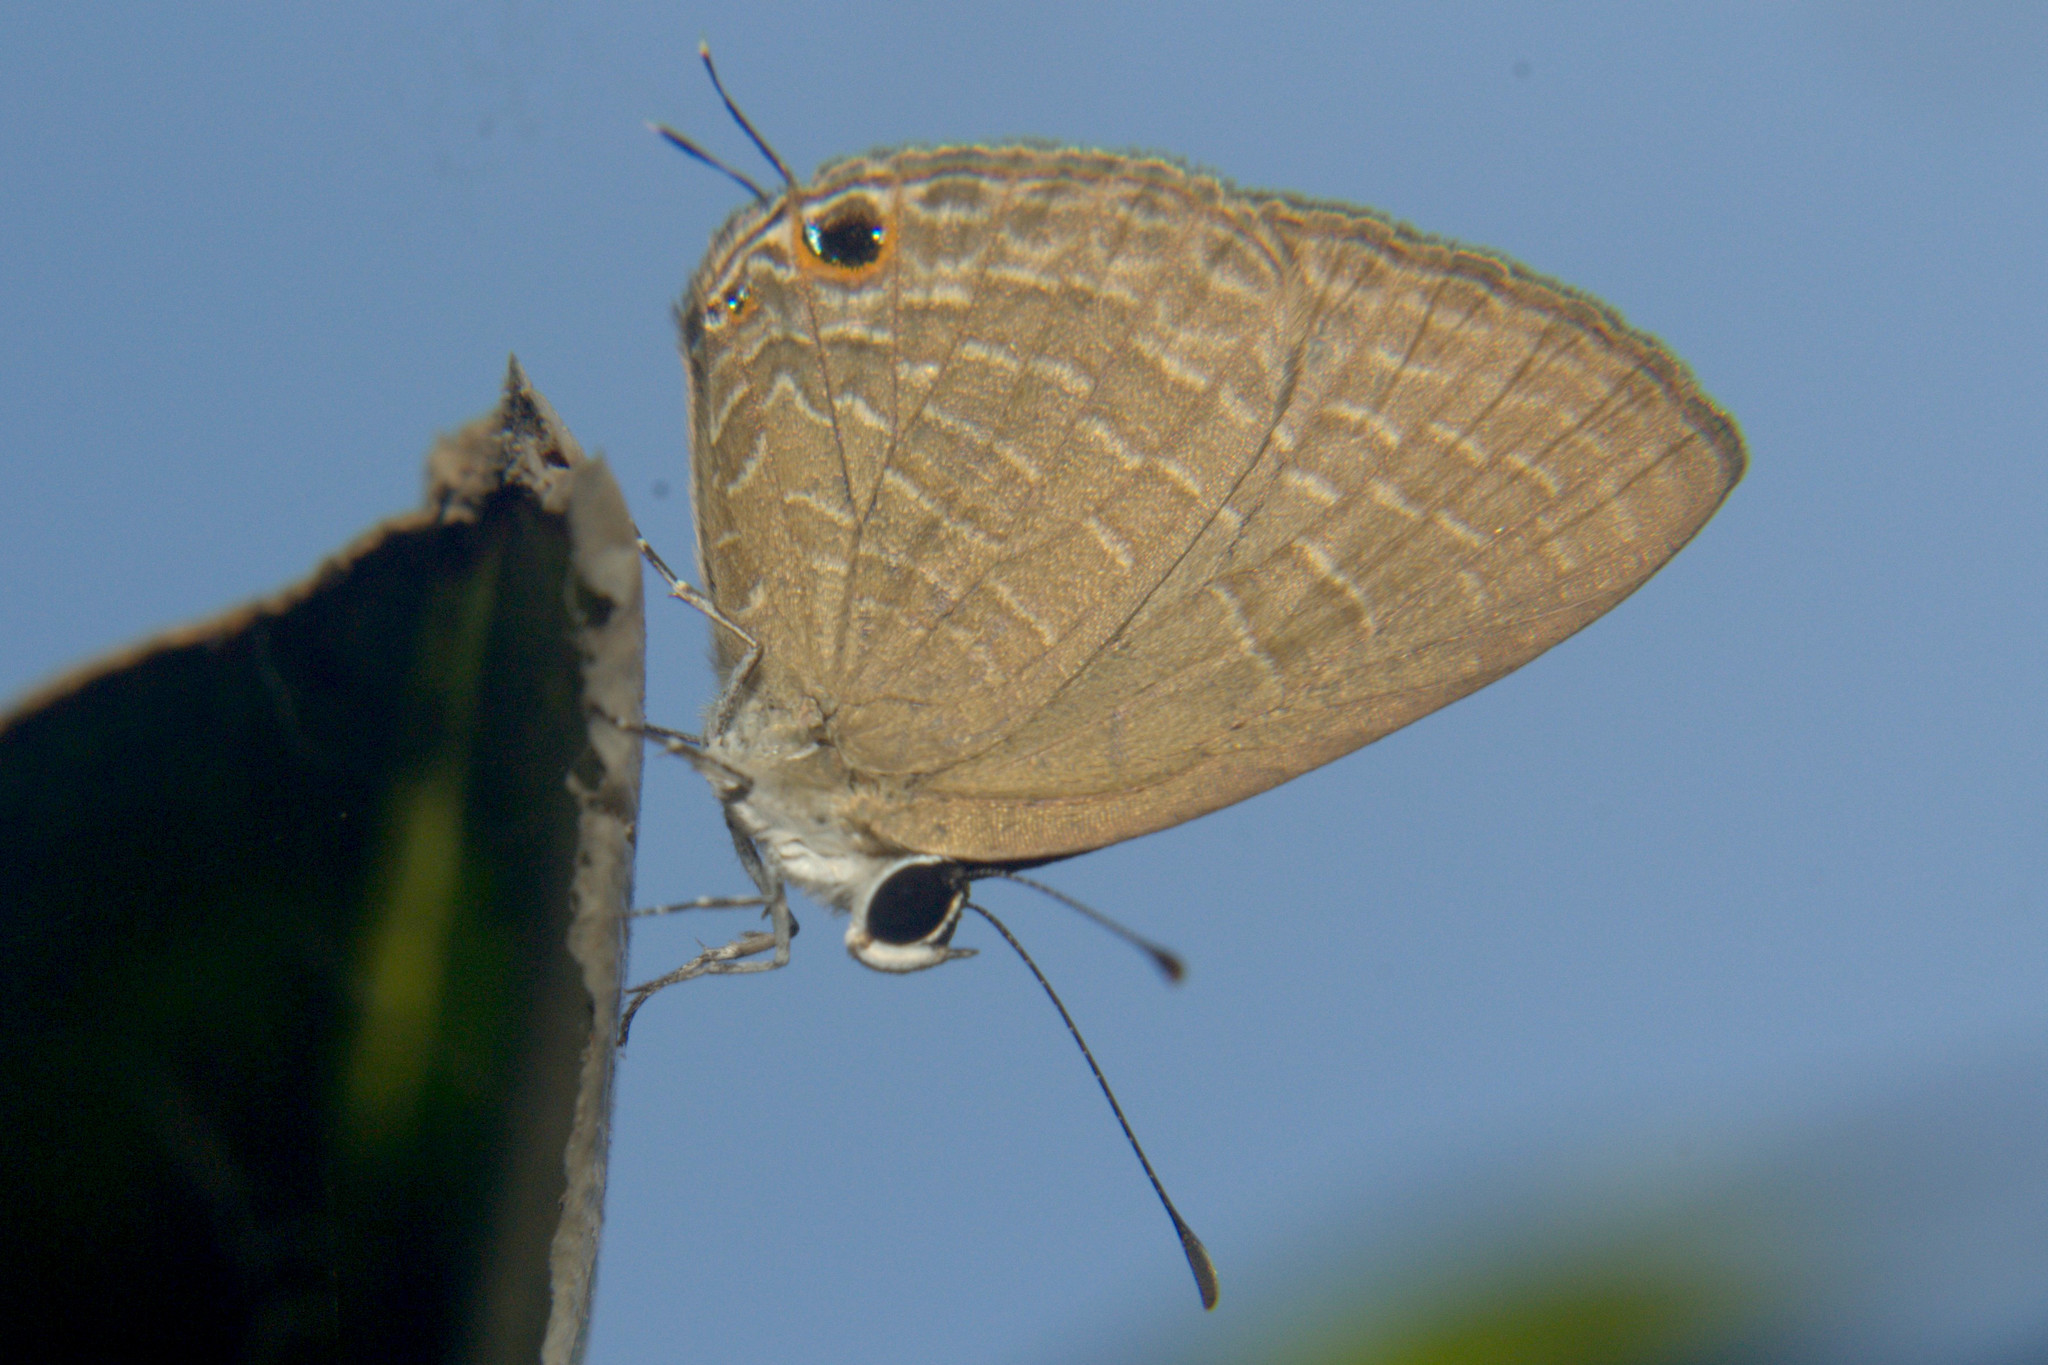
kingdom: Animalia
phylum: Arthropoda
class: Insecta
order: Lepidoptera
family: Lycaenidae
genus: Jamides
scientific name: Jamides bochus
